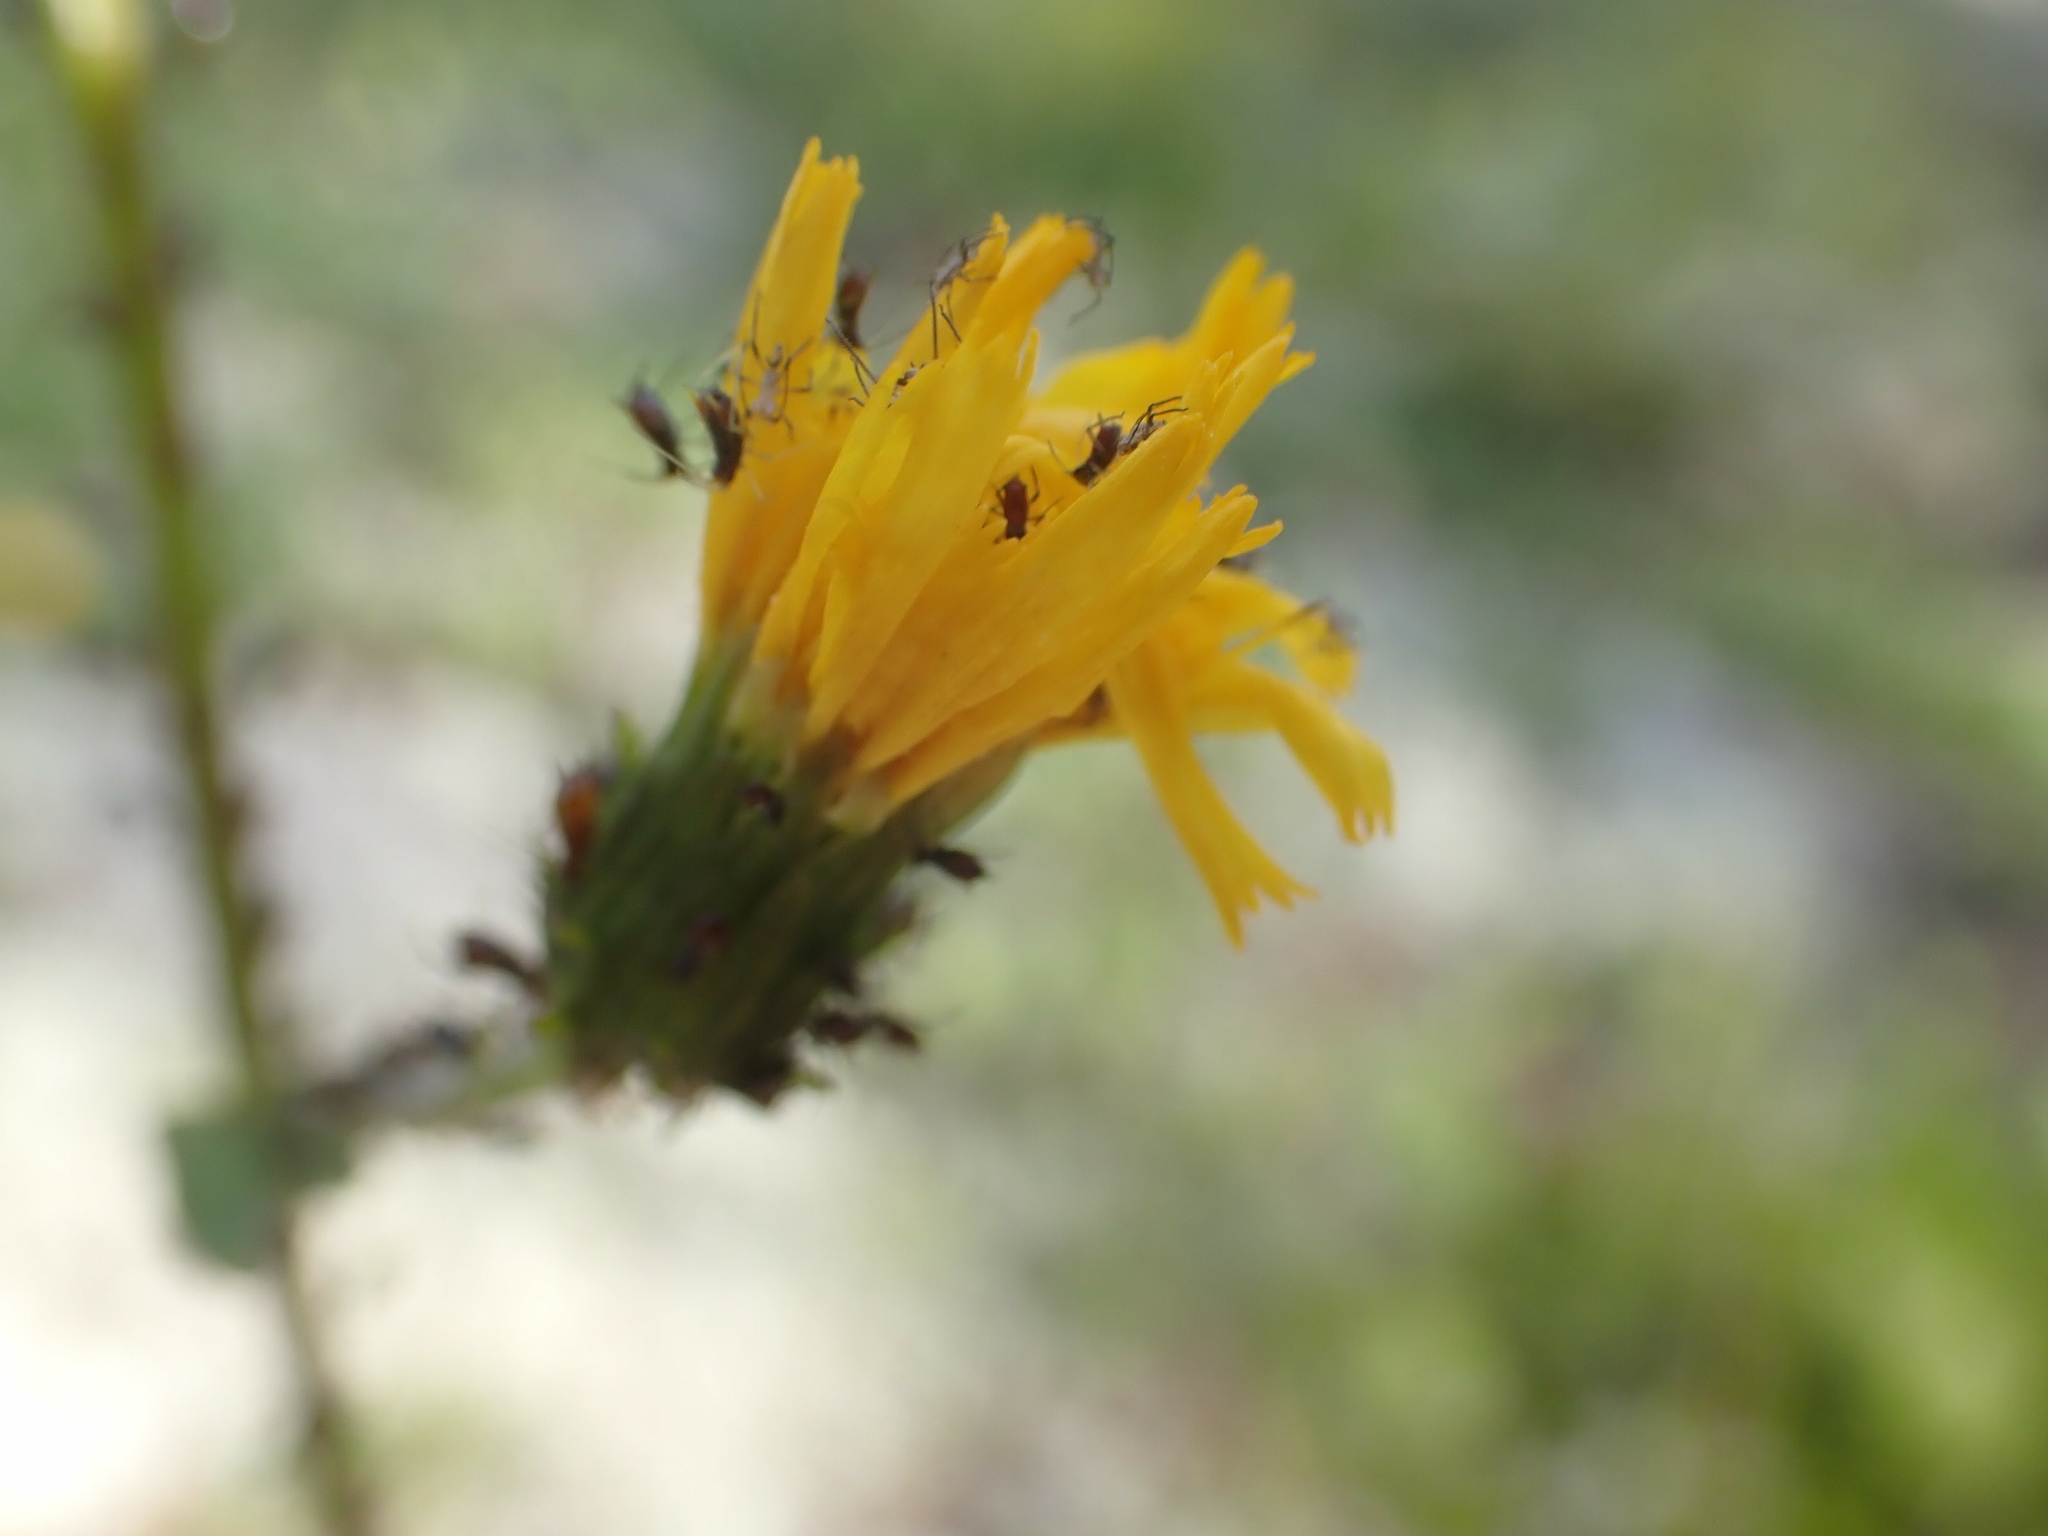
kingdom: Plantae
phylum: Tracheophyta
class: Magnoliopsida
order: Asterales
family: Asteraceae
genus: Hieracium
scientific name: Hieracium umbellatum
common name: Northern hawkweed
